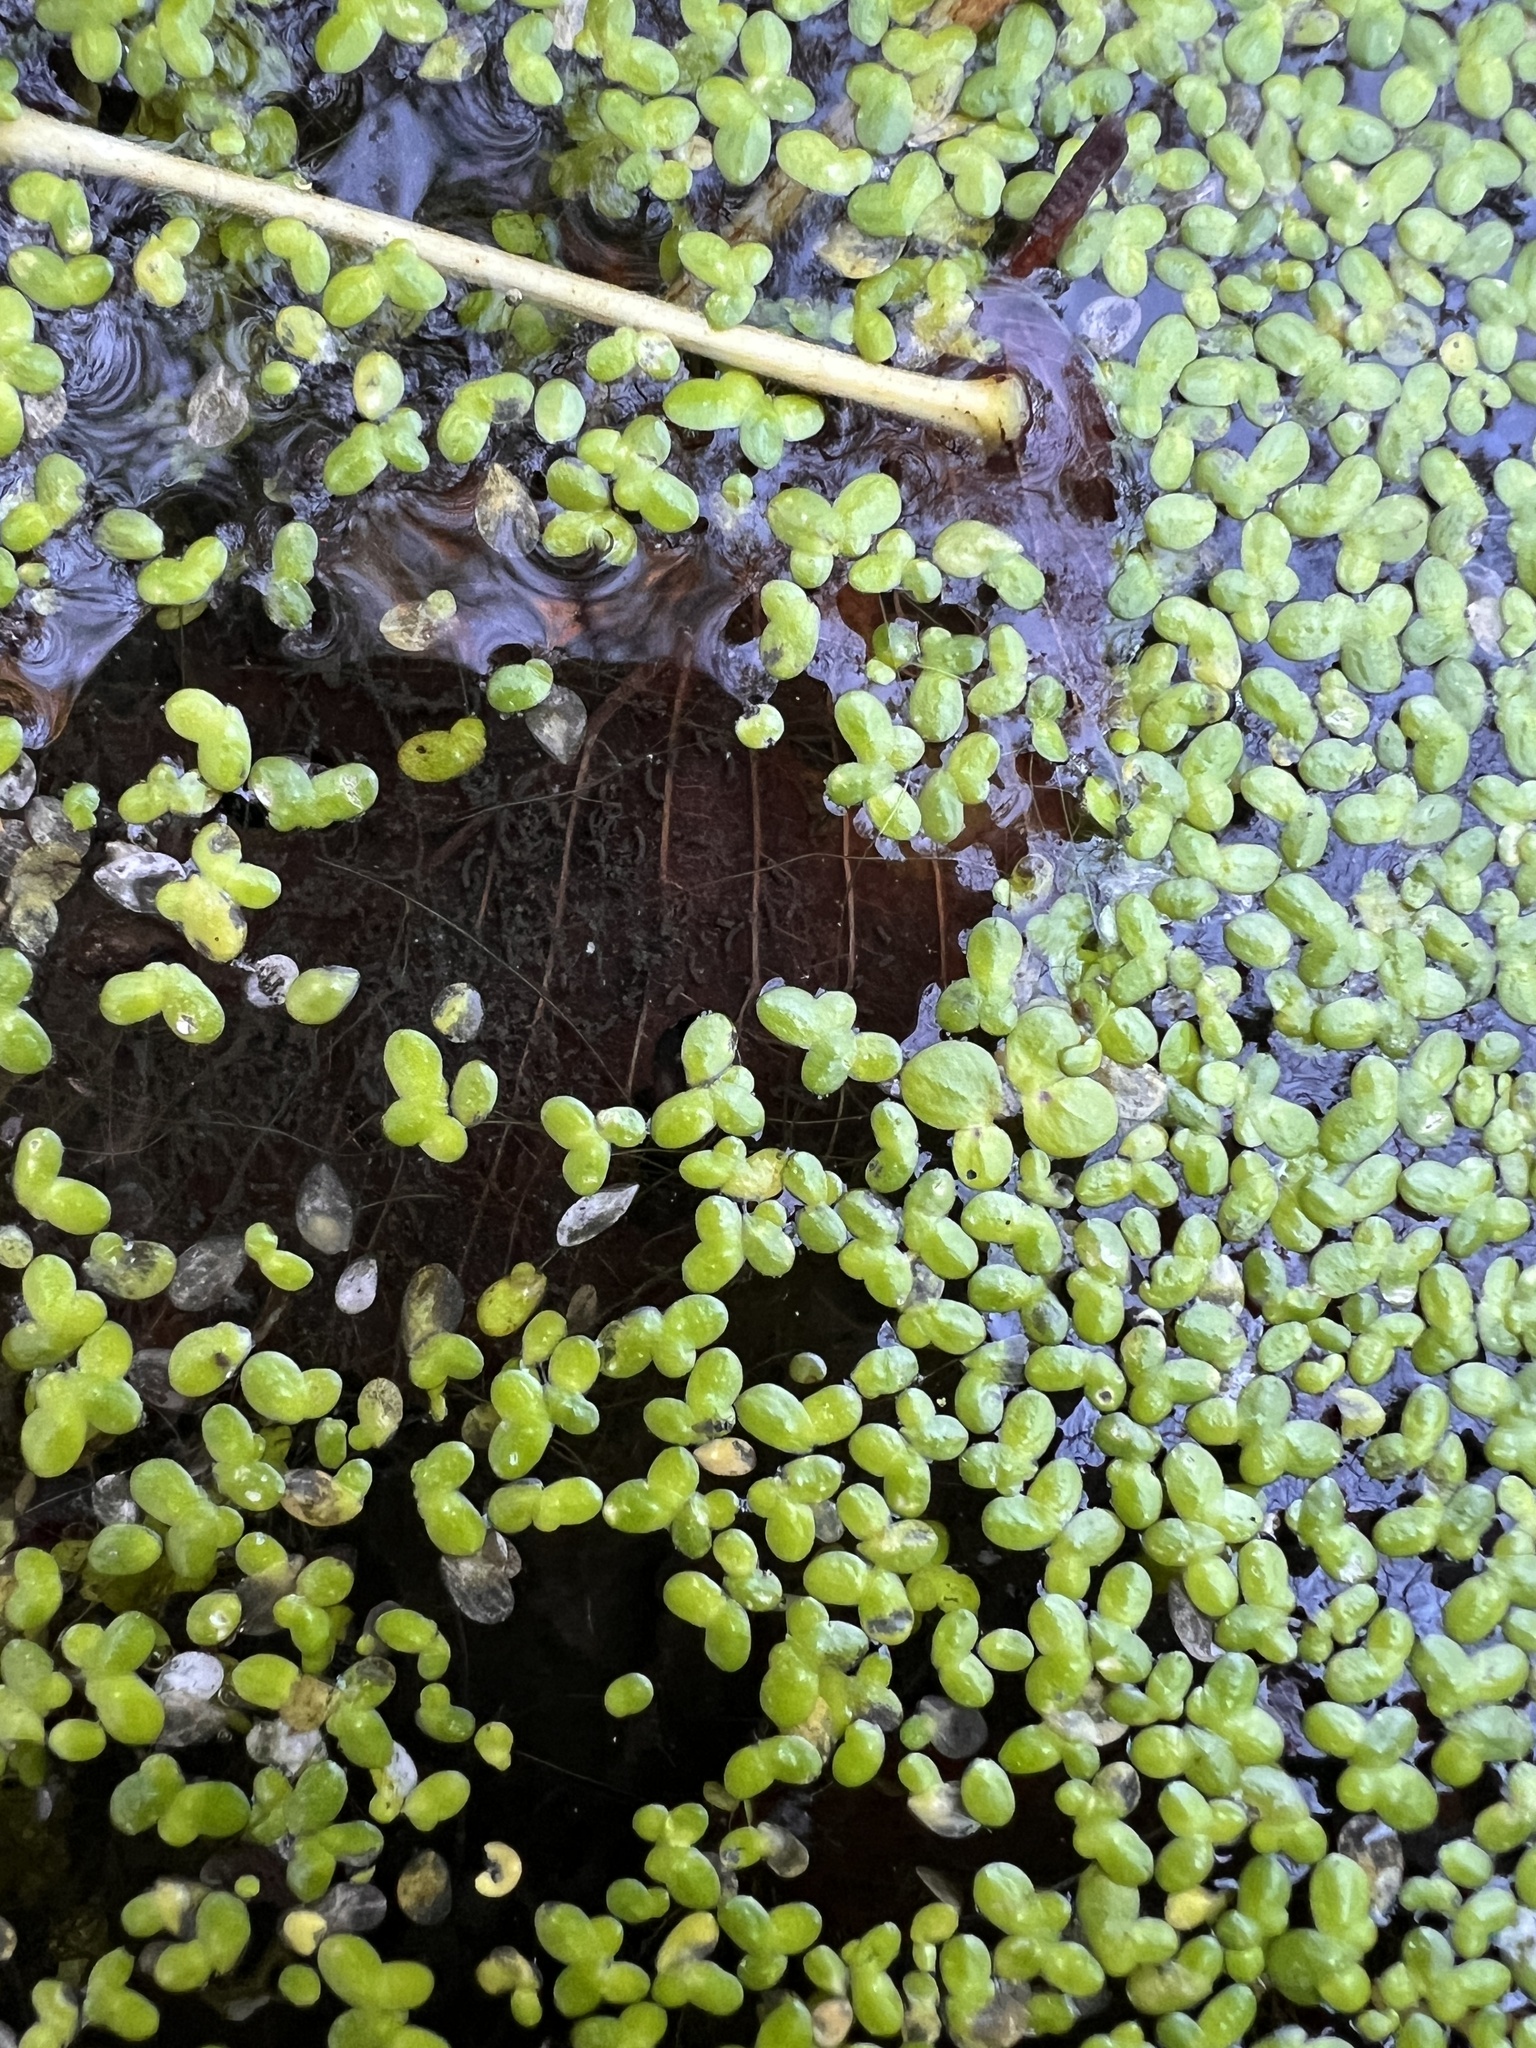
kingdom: Plantae
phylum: Tracheophyta
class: Liliopsida
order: Alismatales
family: Araceae
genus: Lemna
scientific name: Lemna minor
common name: Common duckweed
